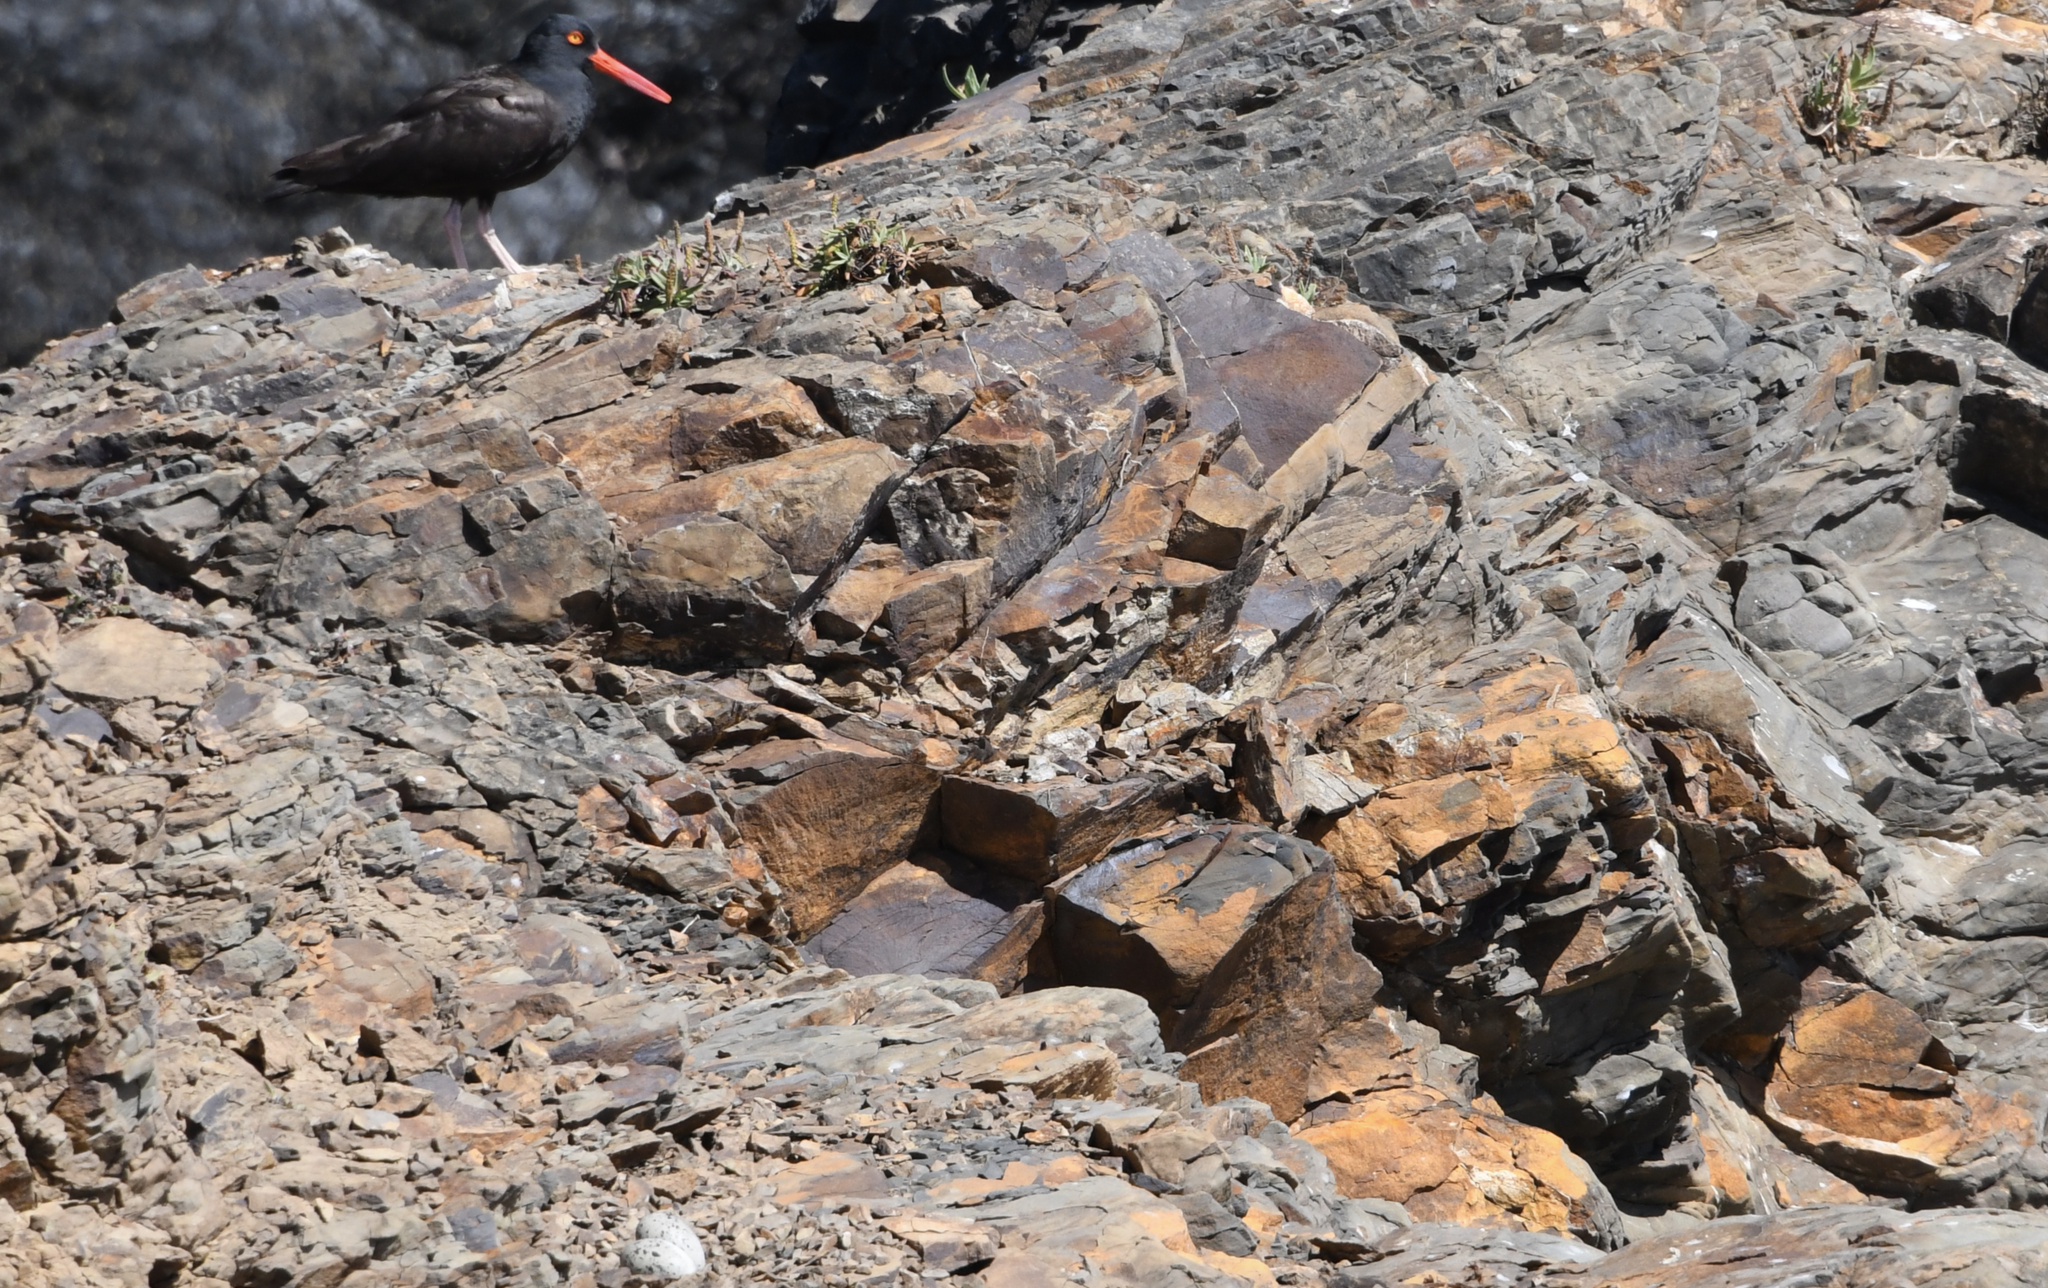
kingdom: Animalia
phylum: Chordata
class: Aves
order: Charadriiformes
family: Haematopodidae
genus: Haematopus
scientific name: Haematopus bachmani
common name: Black oystercatcher
